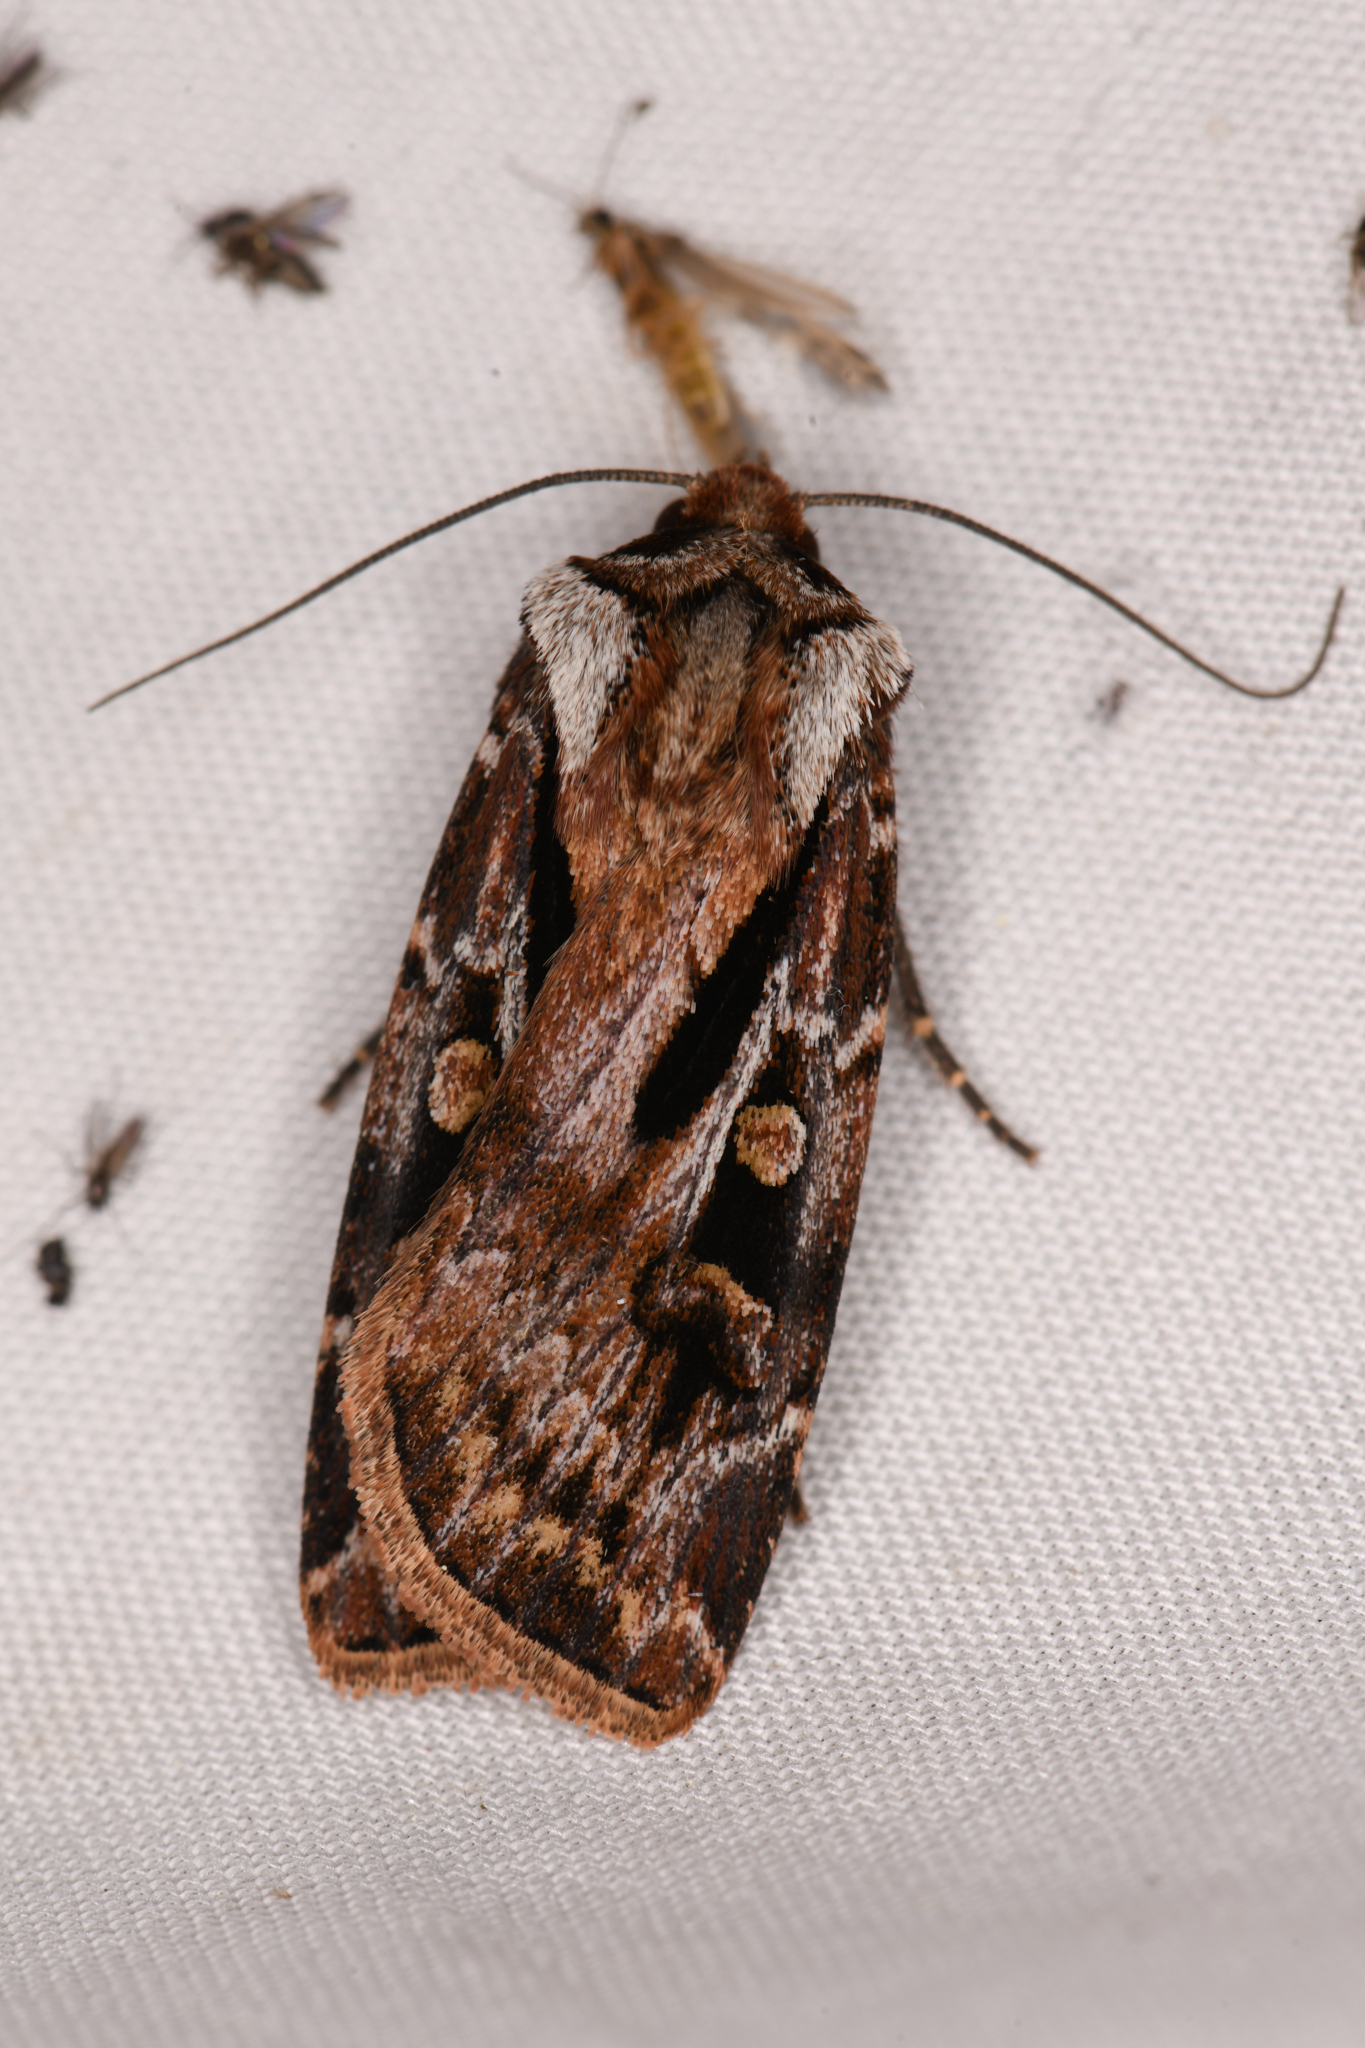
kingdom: Animalia
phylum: Arthropoda
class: Insecta
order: Lepidoptera
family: Noctuidae
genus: Agrotis
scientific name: Agrotis vancouverensis
